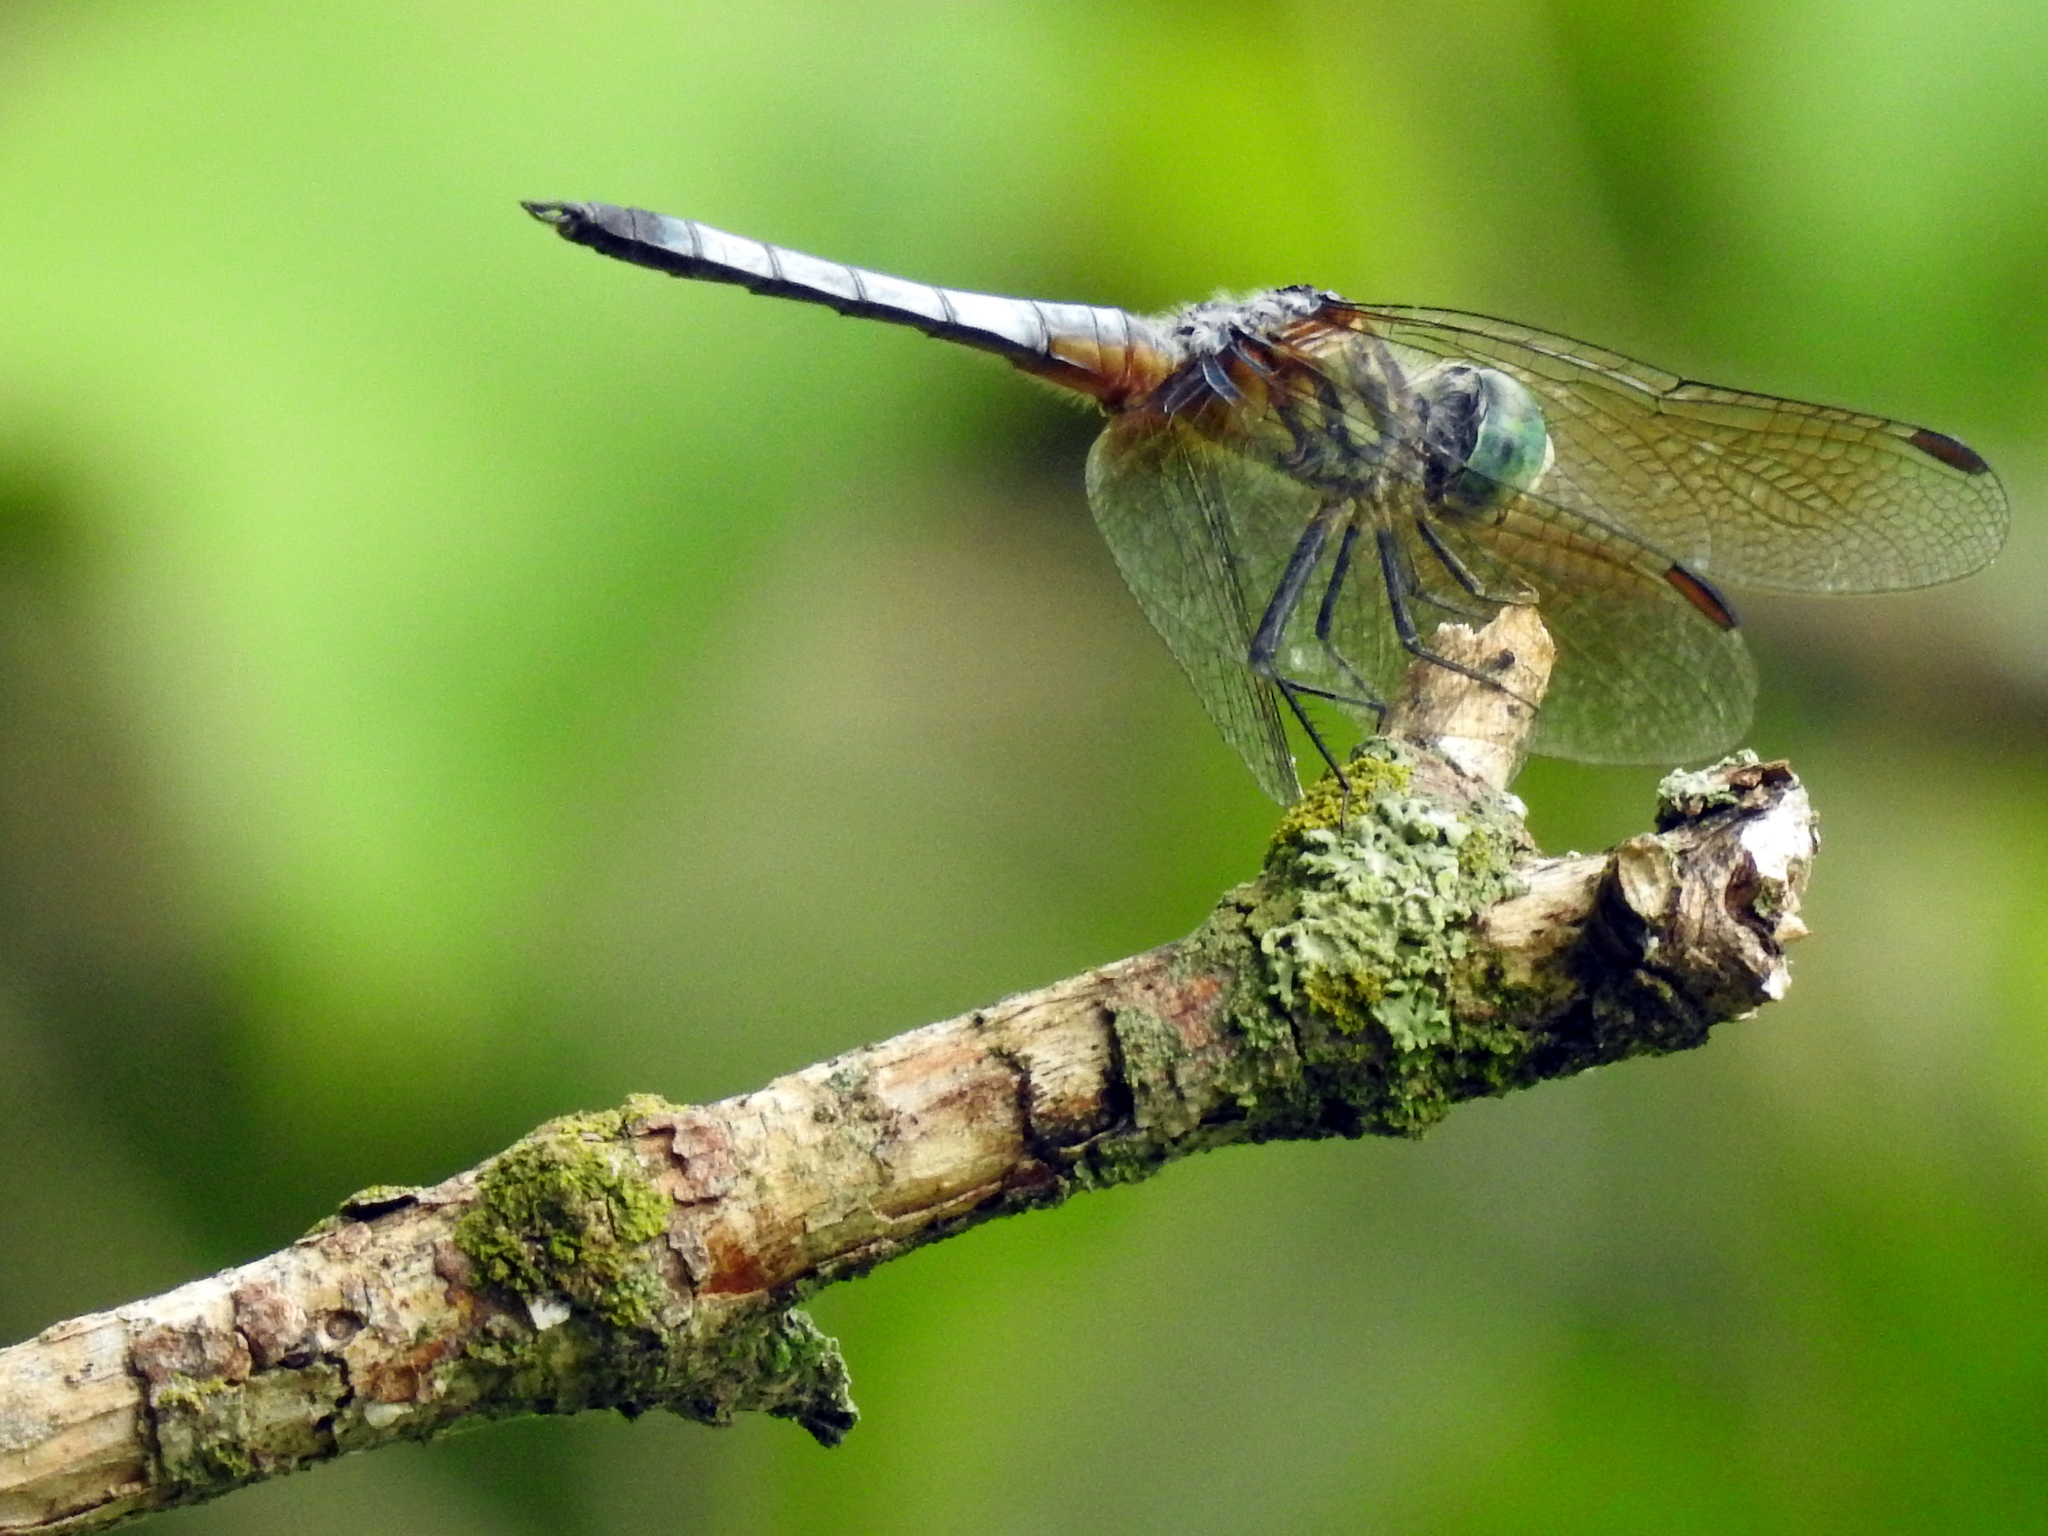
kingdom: Animalia
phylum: Arthropoda
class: Insecta
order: Odonata
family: Libellulidae
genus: Pachydiplax
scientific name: Pachydiplax longipennis
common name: Blue dasher
